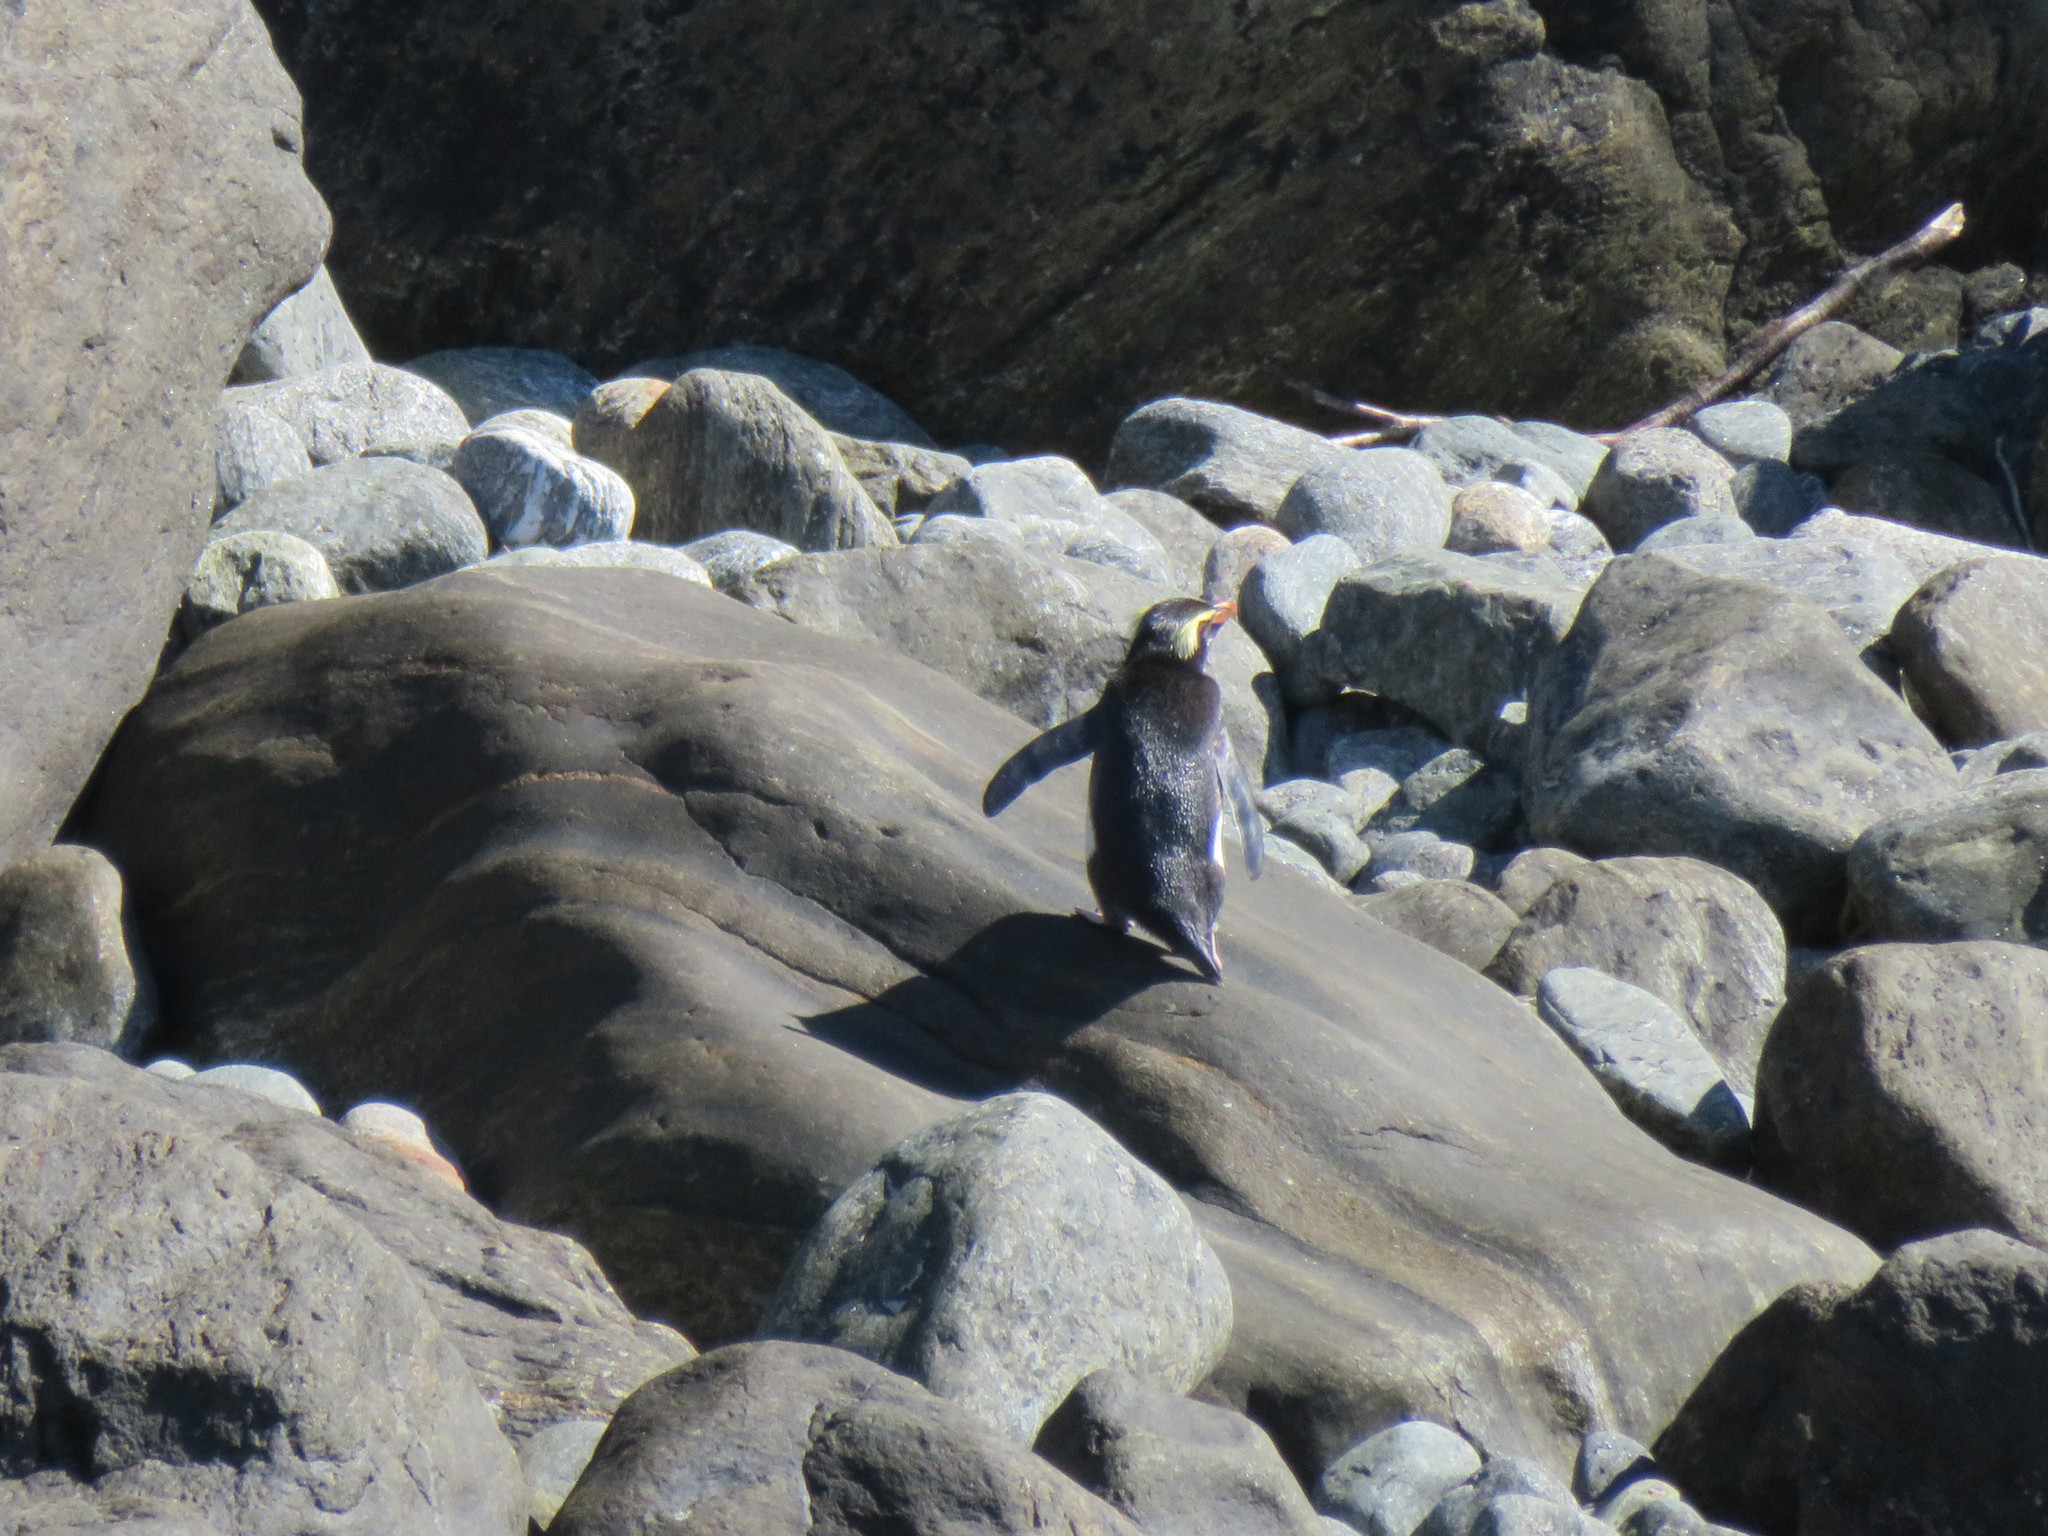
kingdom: Animalia
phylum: Chordata
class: Aves
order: Sphenisciformes
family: Spheniscidae
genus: Eudyptes
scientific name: Eudyptes pachyrhynchus
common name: Fiordland penguin
